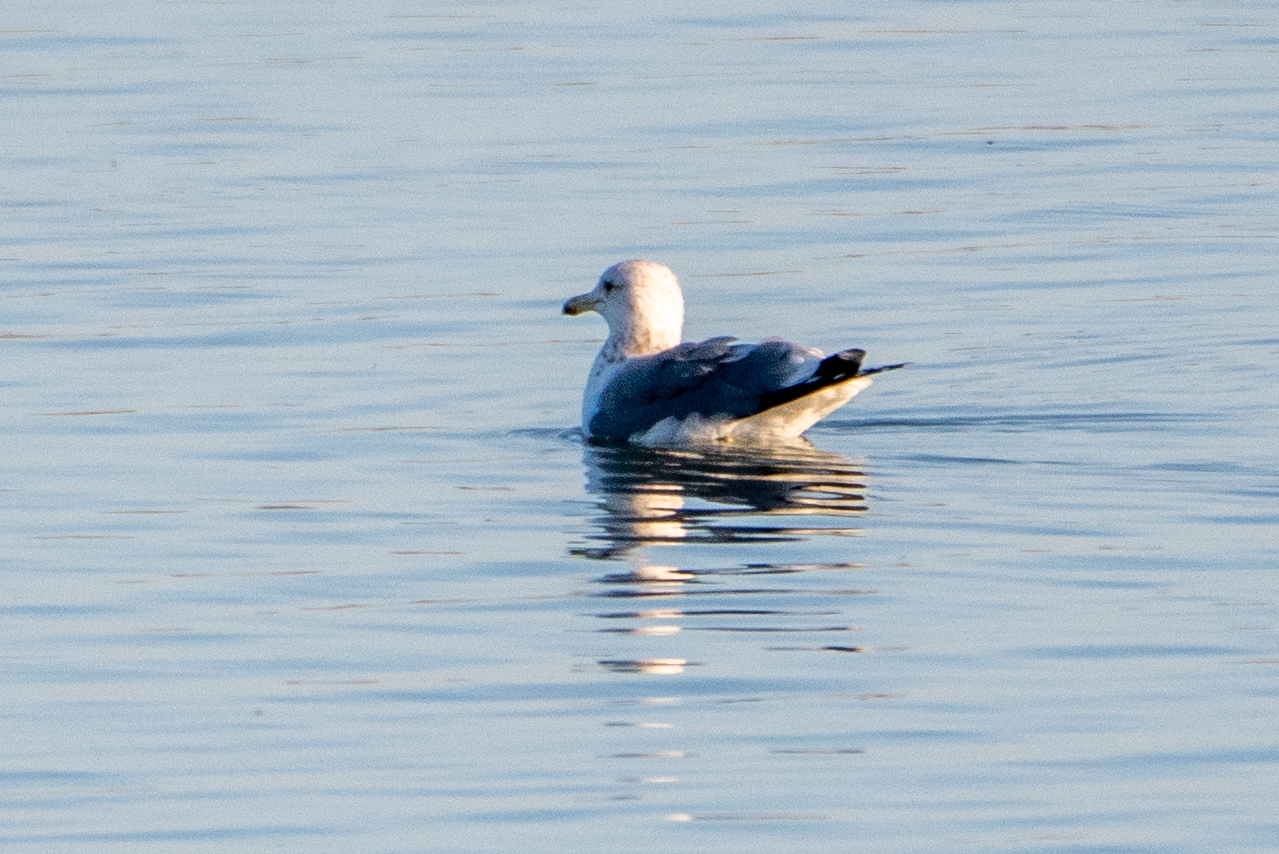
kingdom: Animalia
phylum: Chordata
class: Aves
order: Charadriiformes
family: Laridae
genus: Larus
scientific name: Larus californicus
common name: California gull
